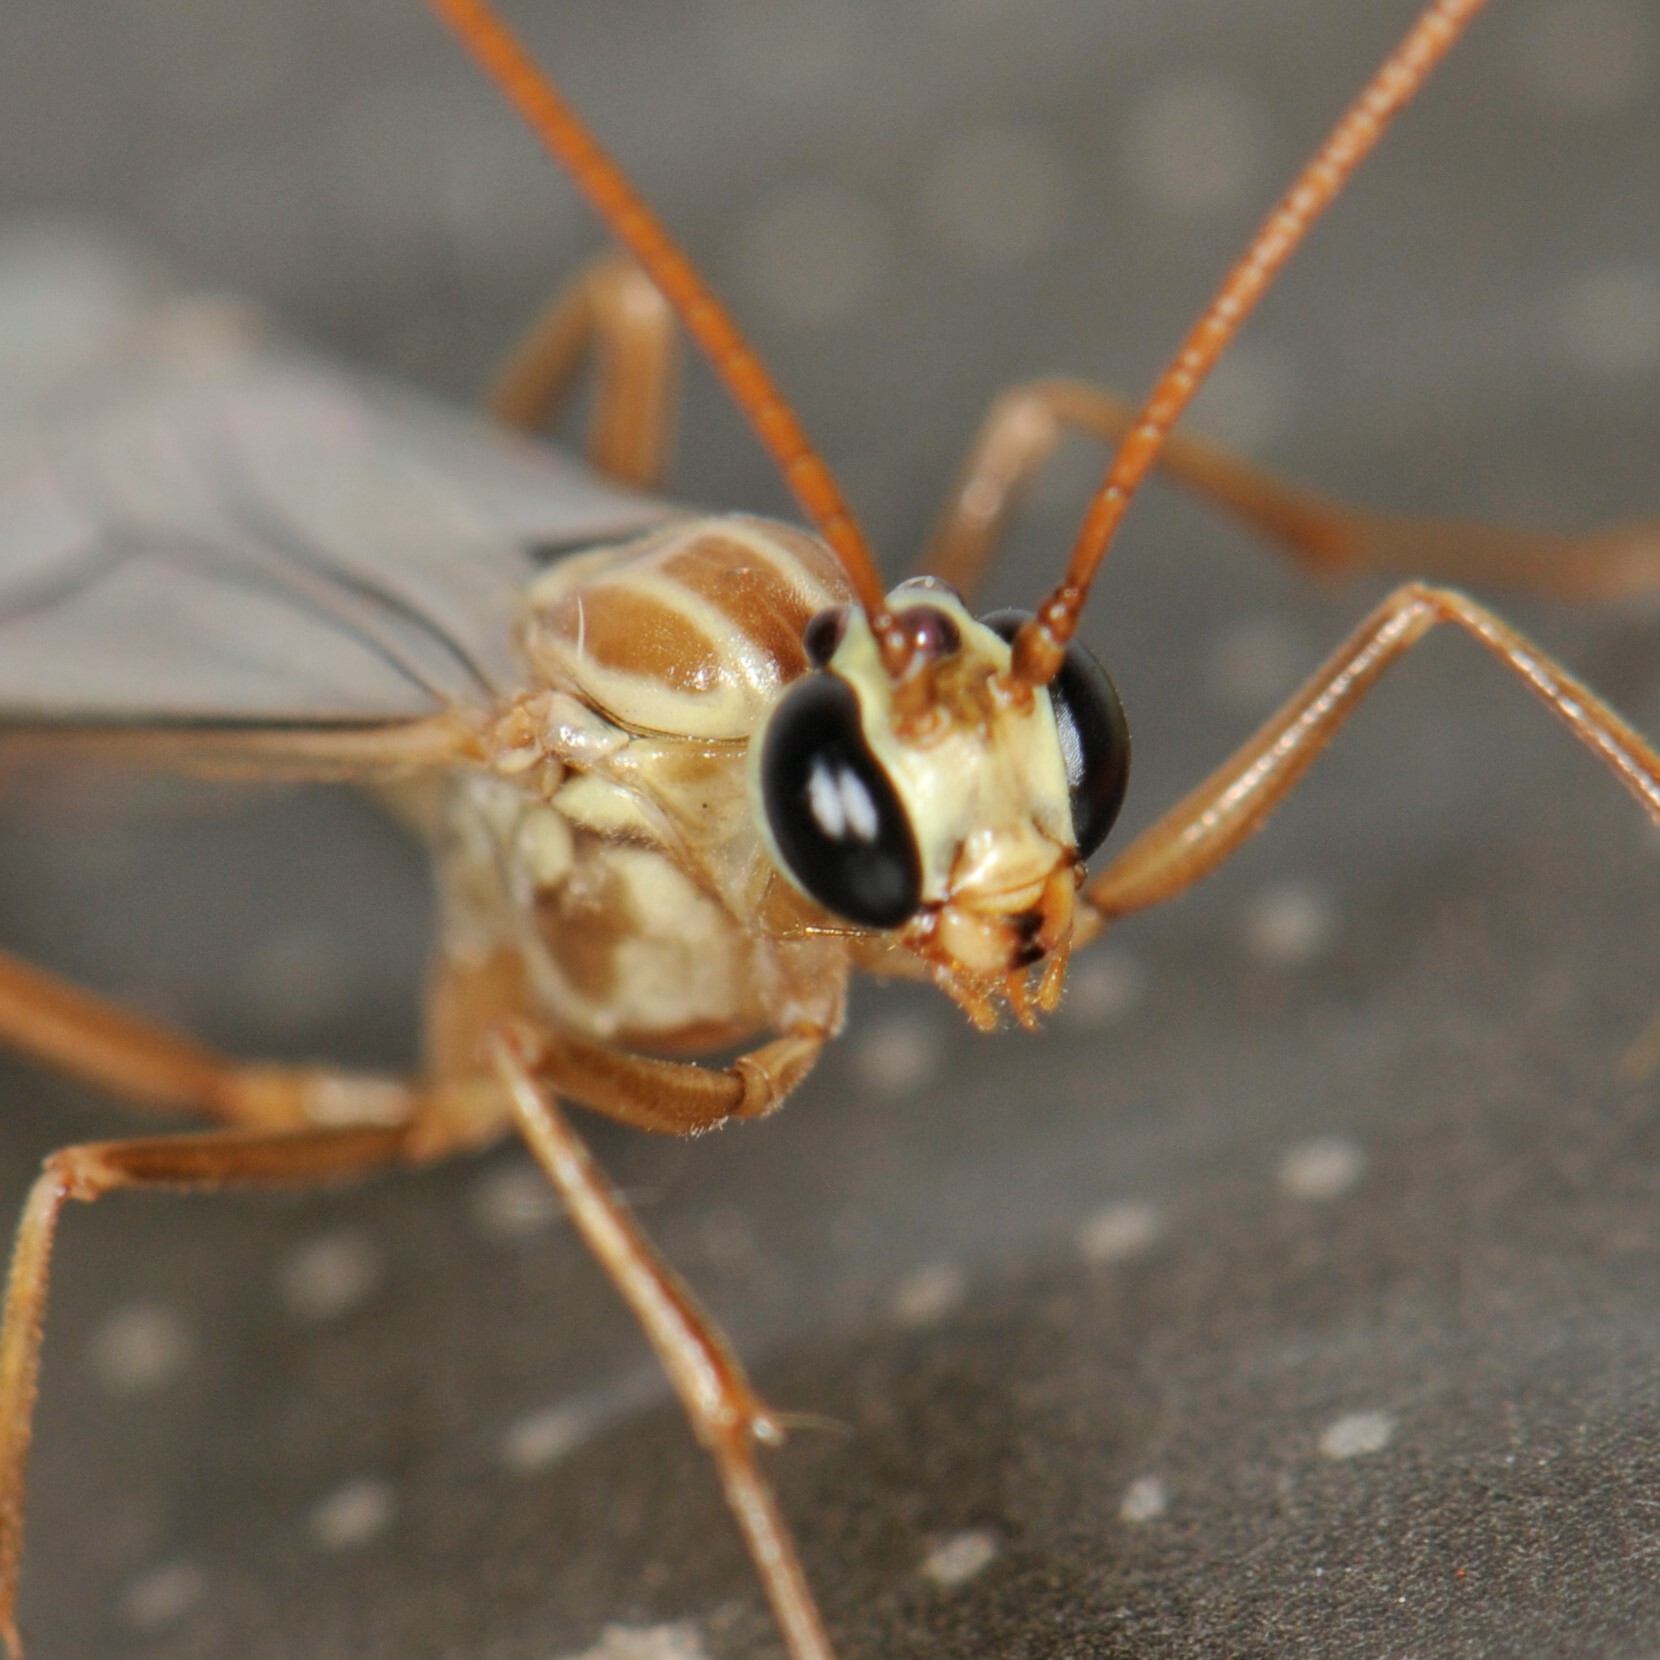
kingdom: Animalia
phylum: Arthropoda
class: Insecta
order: Hymenoptera
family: Ichneumonidae
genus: Ophion
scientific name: Ophion
